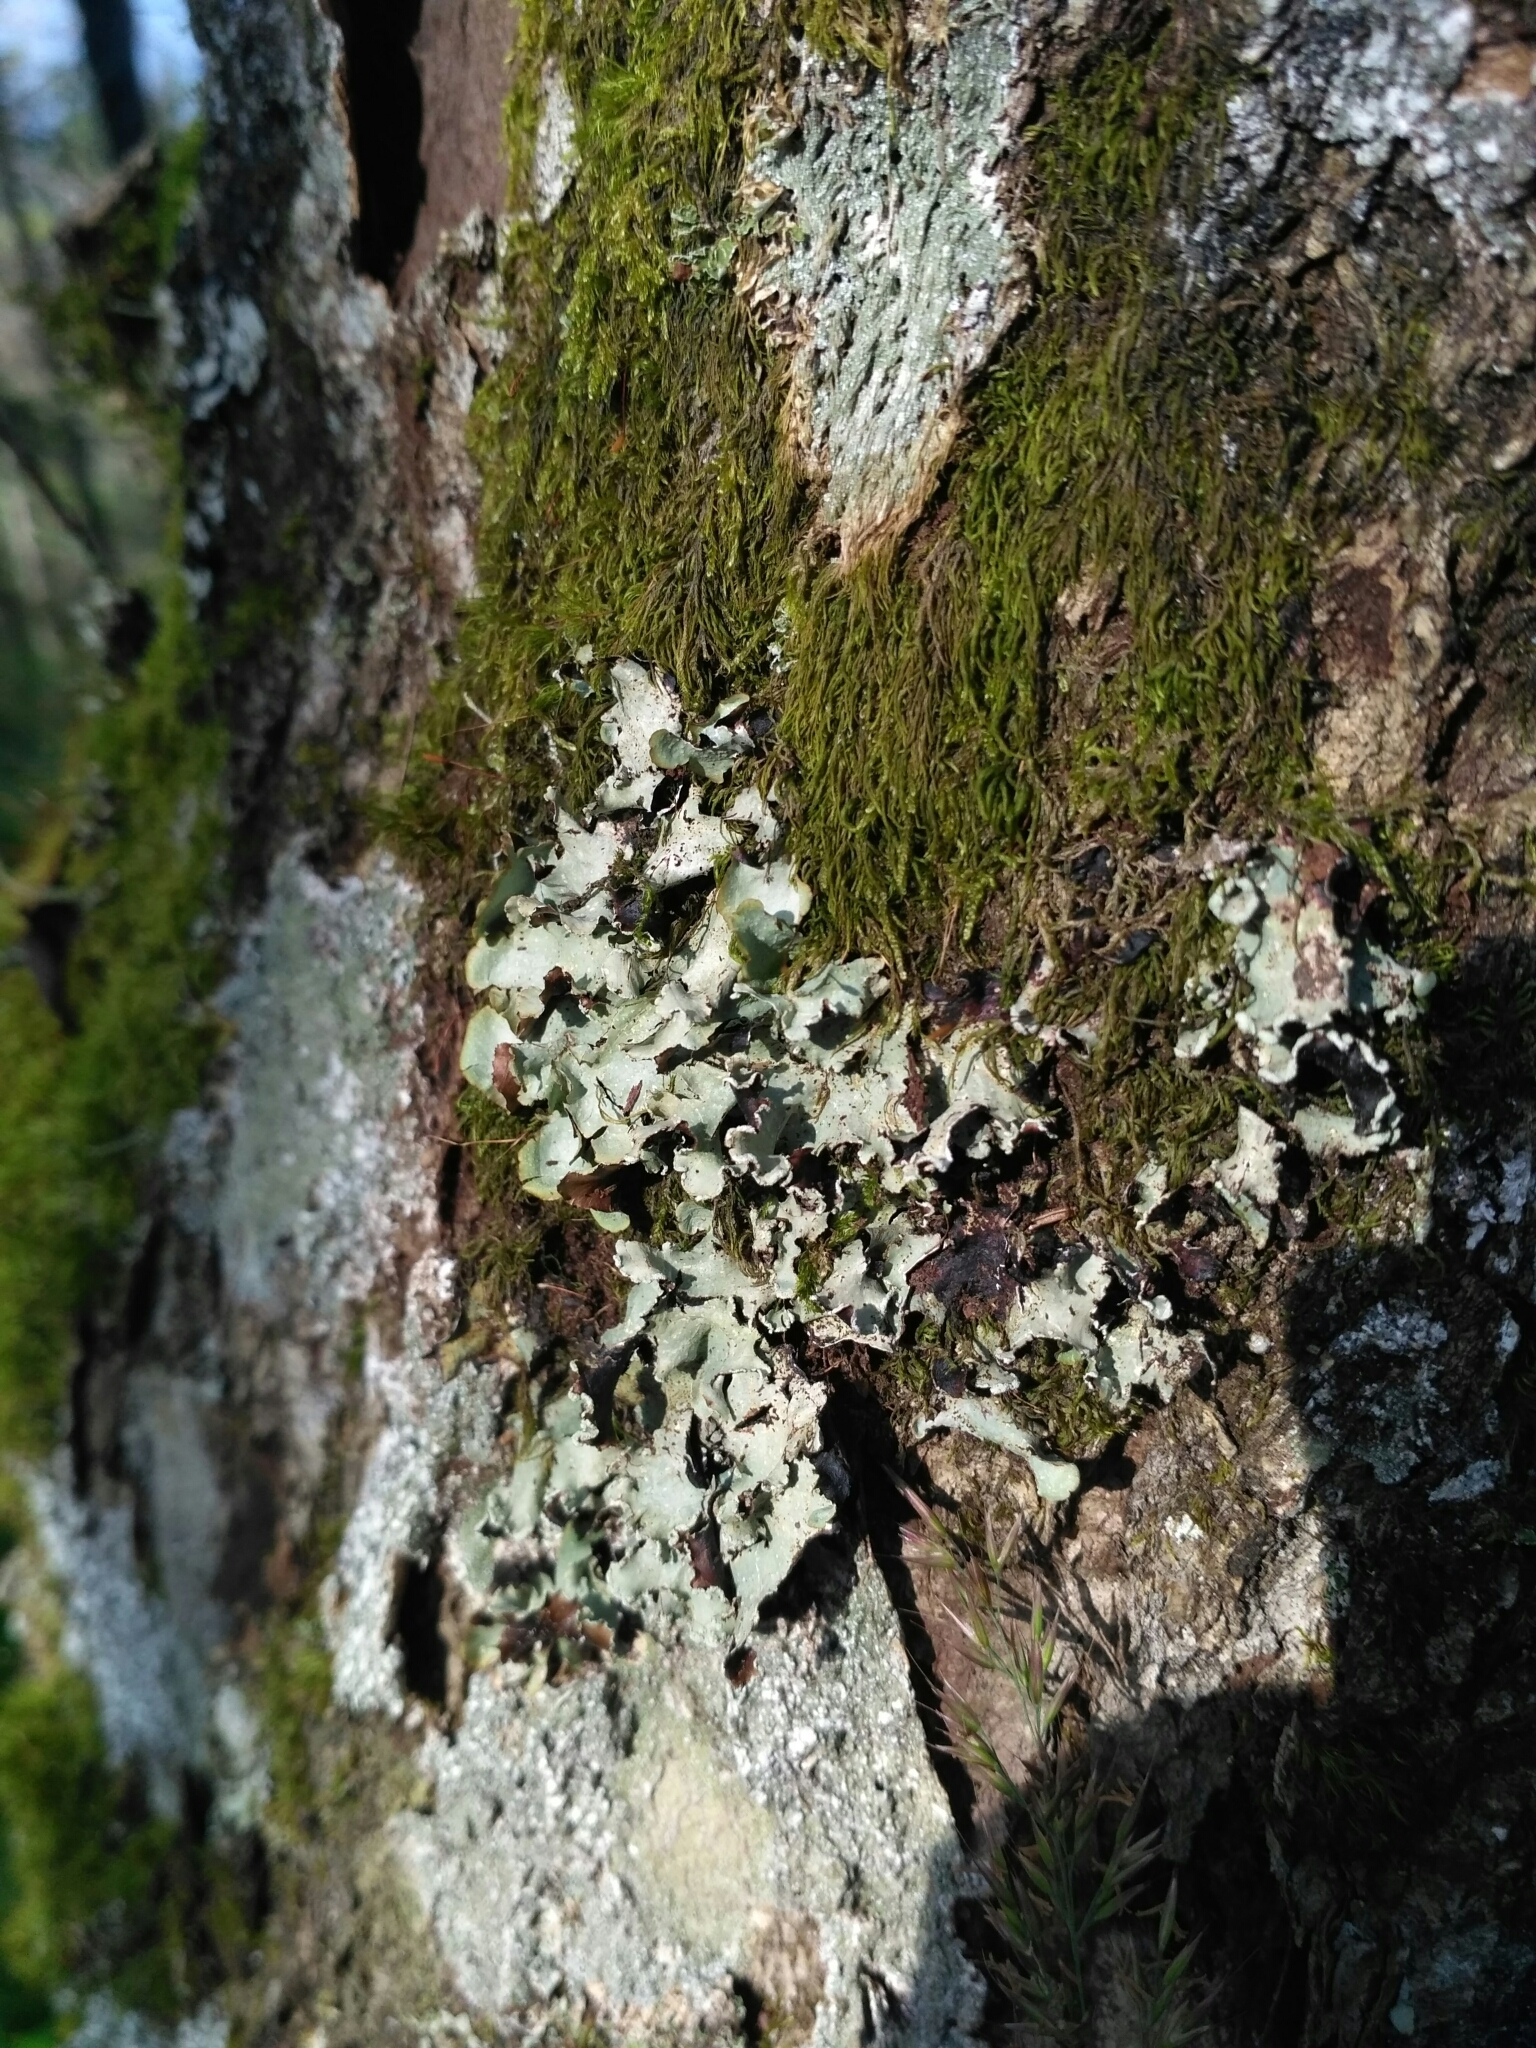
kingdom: Fungi
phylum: Ascomycota
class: Lecanoromycetes
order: Lecanorales
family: Parmeliaceae
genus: Cetrelia
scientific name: Cetrelia olivetorum
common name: Sea storm lichen
